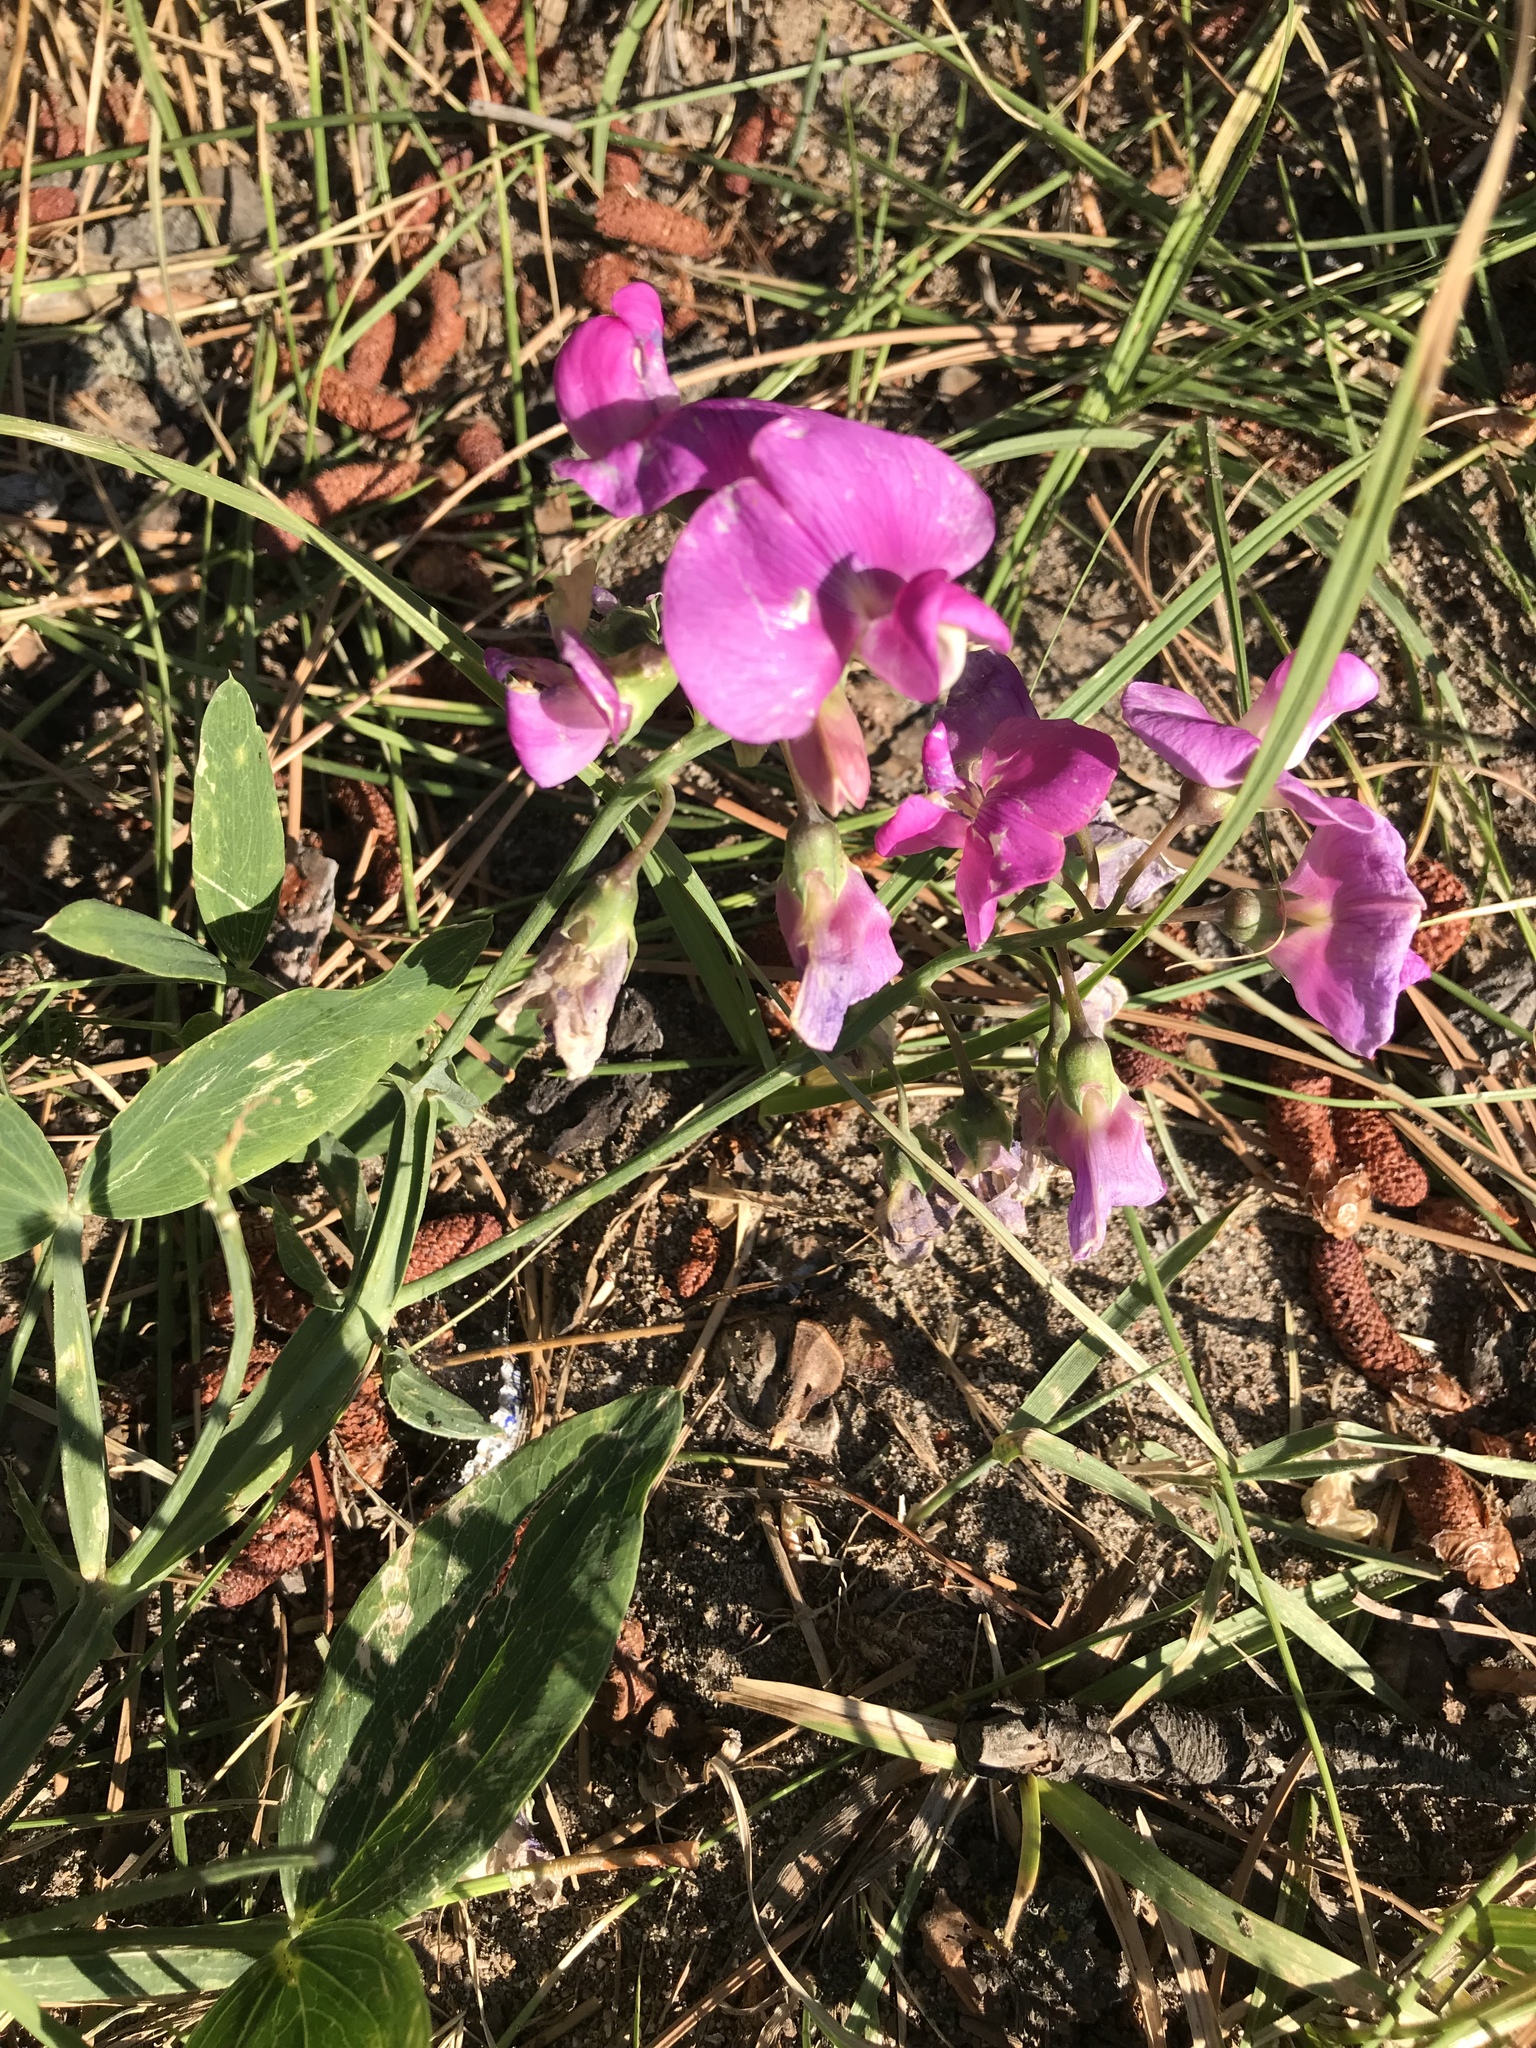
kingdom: Plantae
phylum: Tracheophyta
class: Magnoliopsida
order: Fabales
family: Fabaceae
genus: Lathyrus
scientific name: Lathyrus latifolius
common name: Perennial pea
